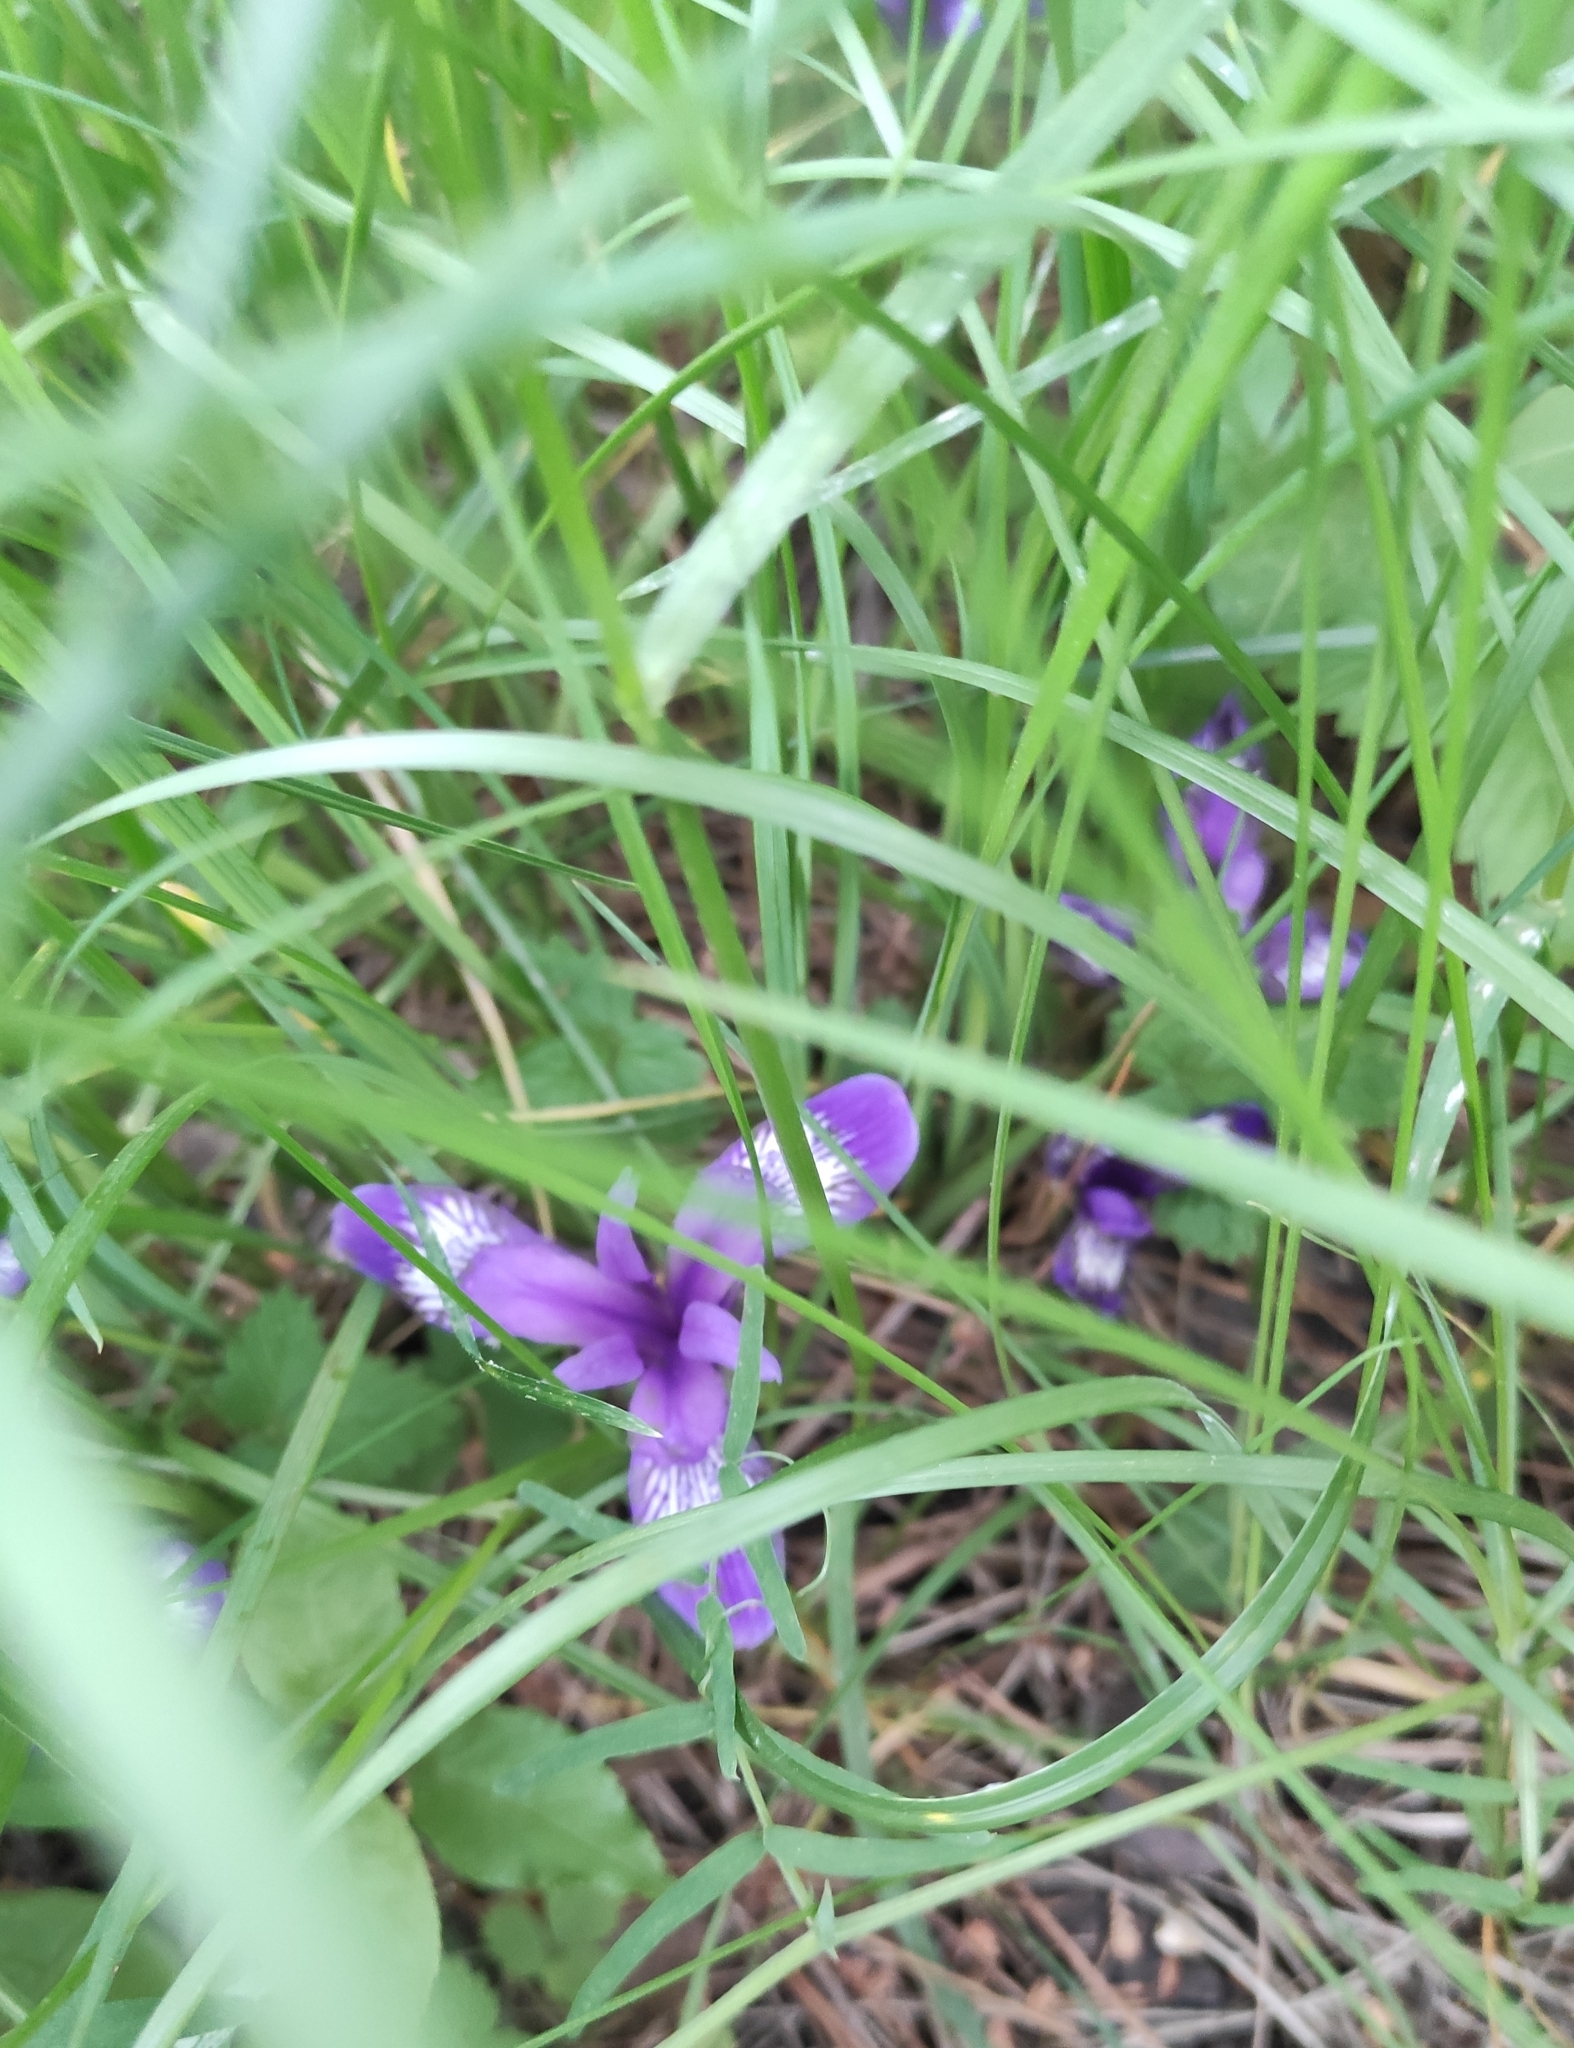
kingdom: Plantae
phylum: Tracheophyta
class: Liliopsida
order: Asparagales
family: Iridaceae
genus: Iris
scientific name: Iris ruthenica
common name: Purple-bract iris
